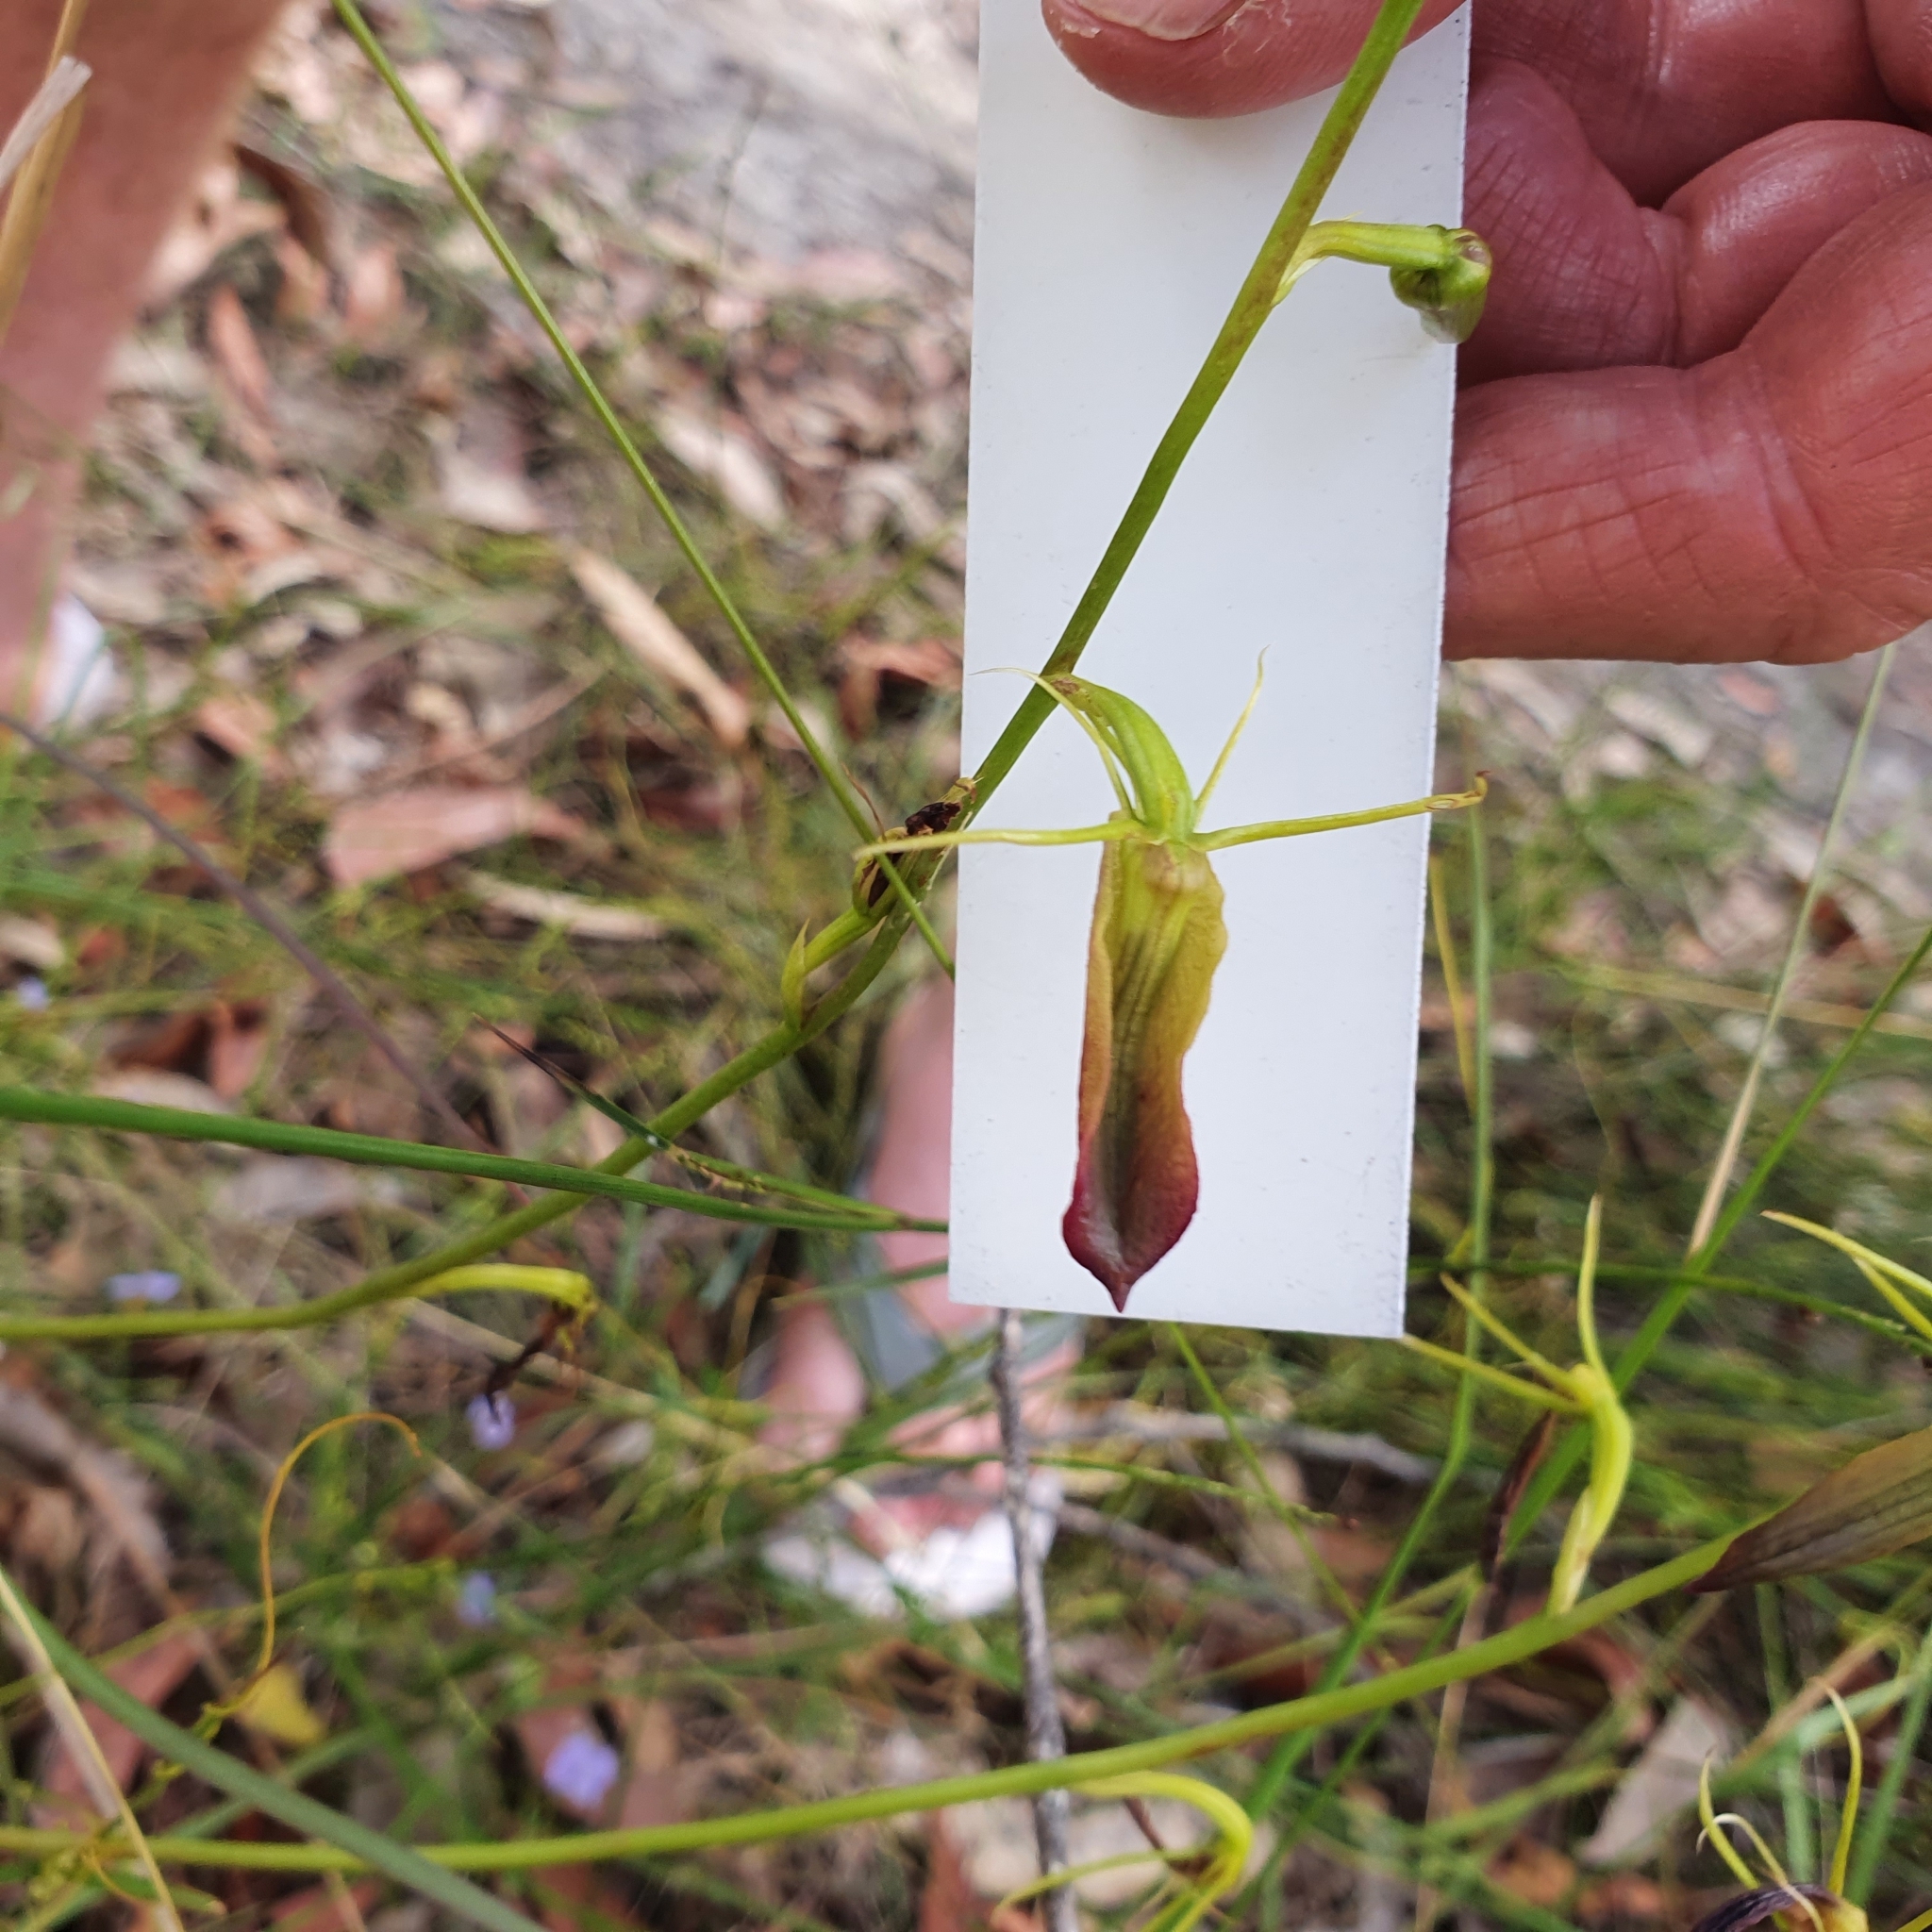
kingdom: Plantae
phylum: Tracheophyta
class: Liliopsida
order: Asparagales
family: Orchidaceae
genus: Cryptostylis
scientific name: Cryptostylis subulata
